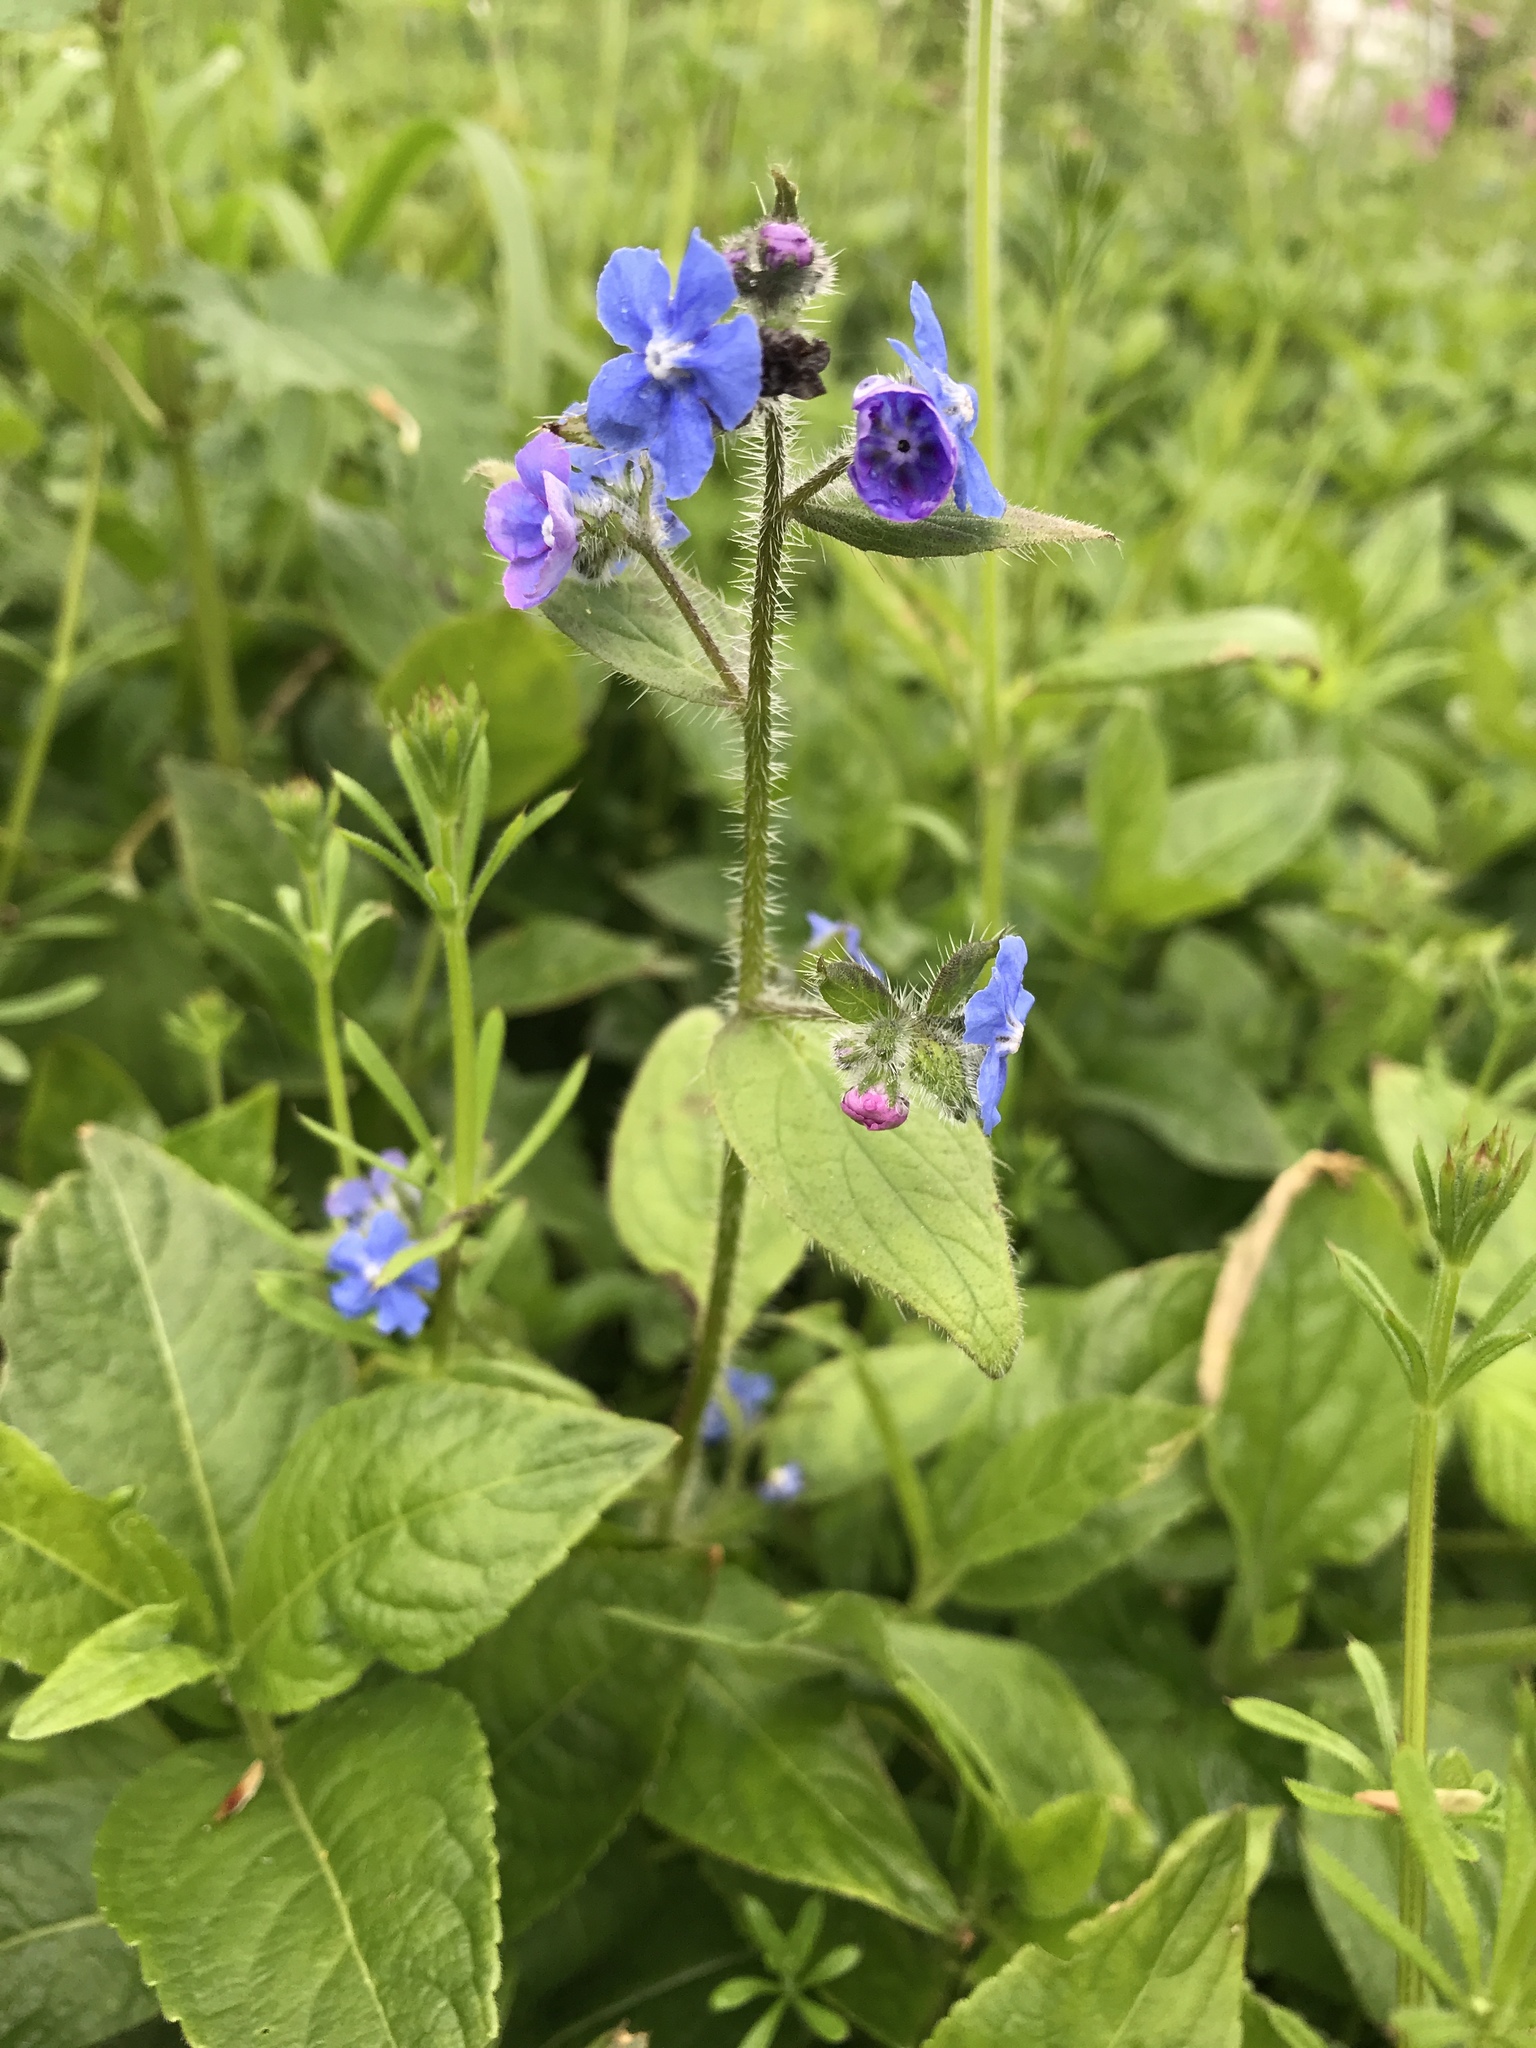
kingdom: Plantae
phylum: Tracheophyta
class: Magnoliopsida
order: Boraginales
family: Boraginaceae
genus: Pentaglottis
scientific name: Pentaglottis sempervirens
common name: Green alkanet
